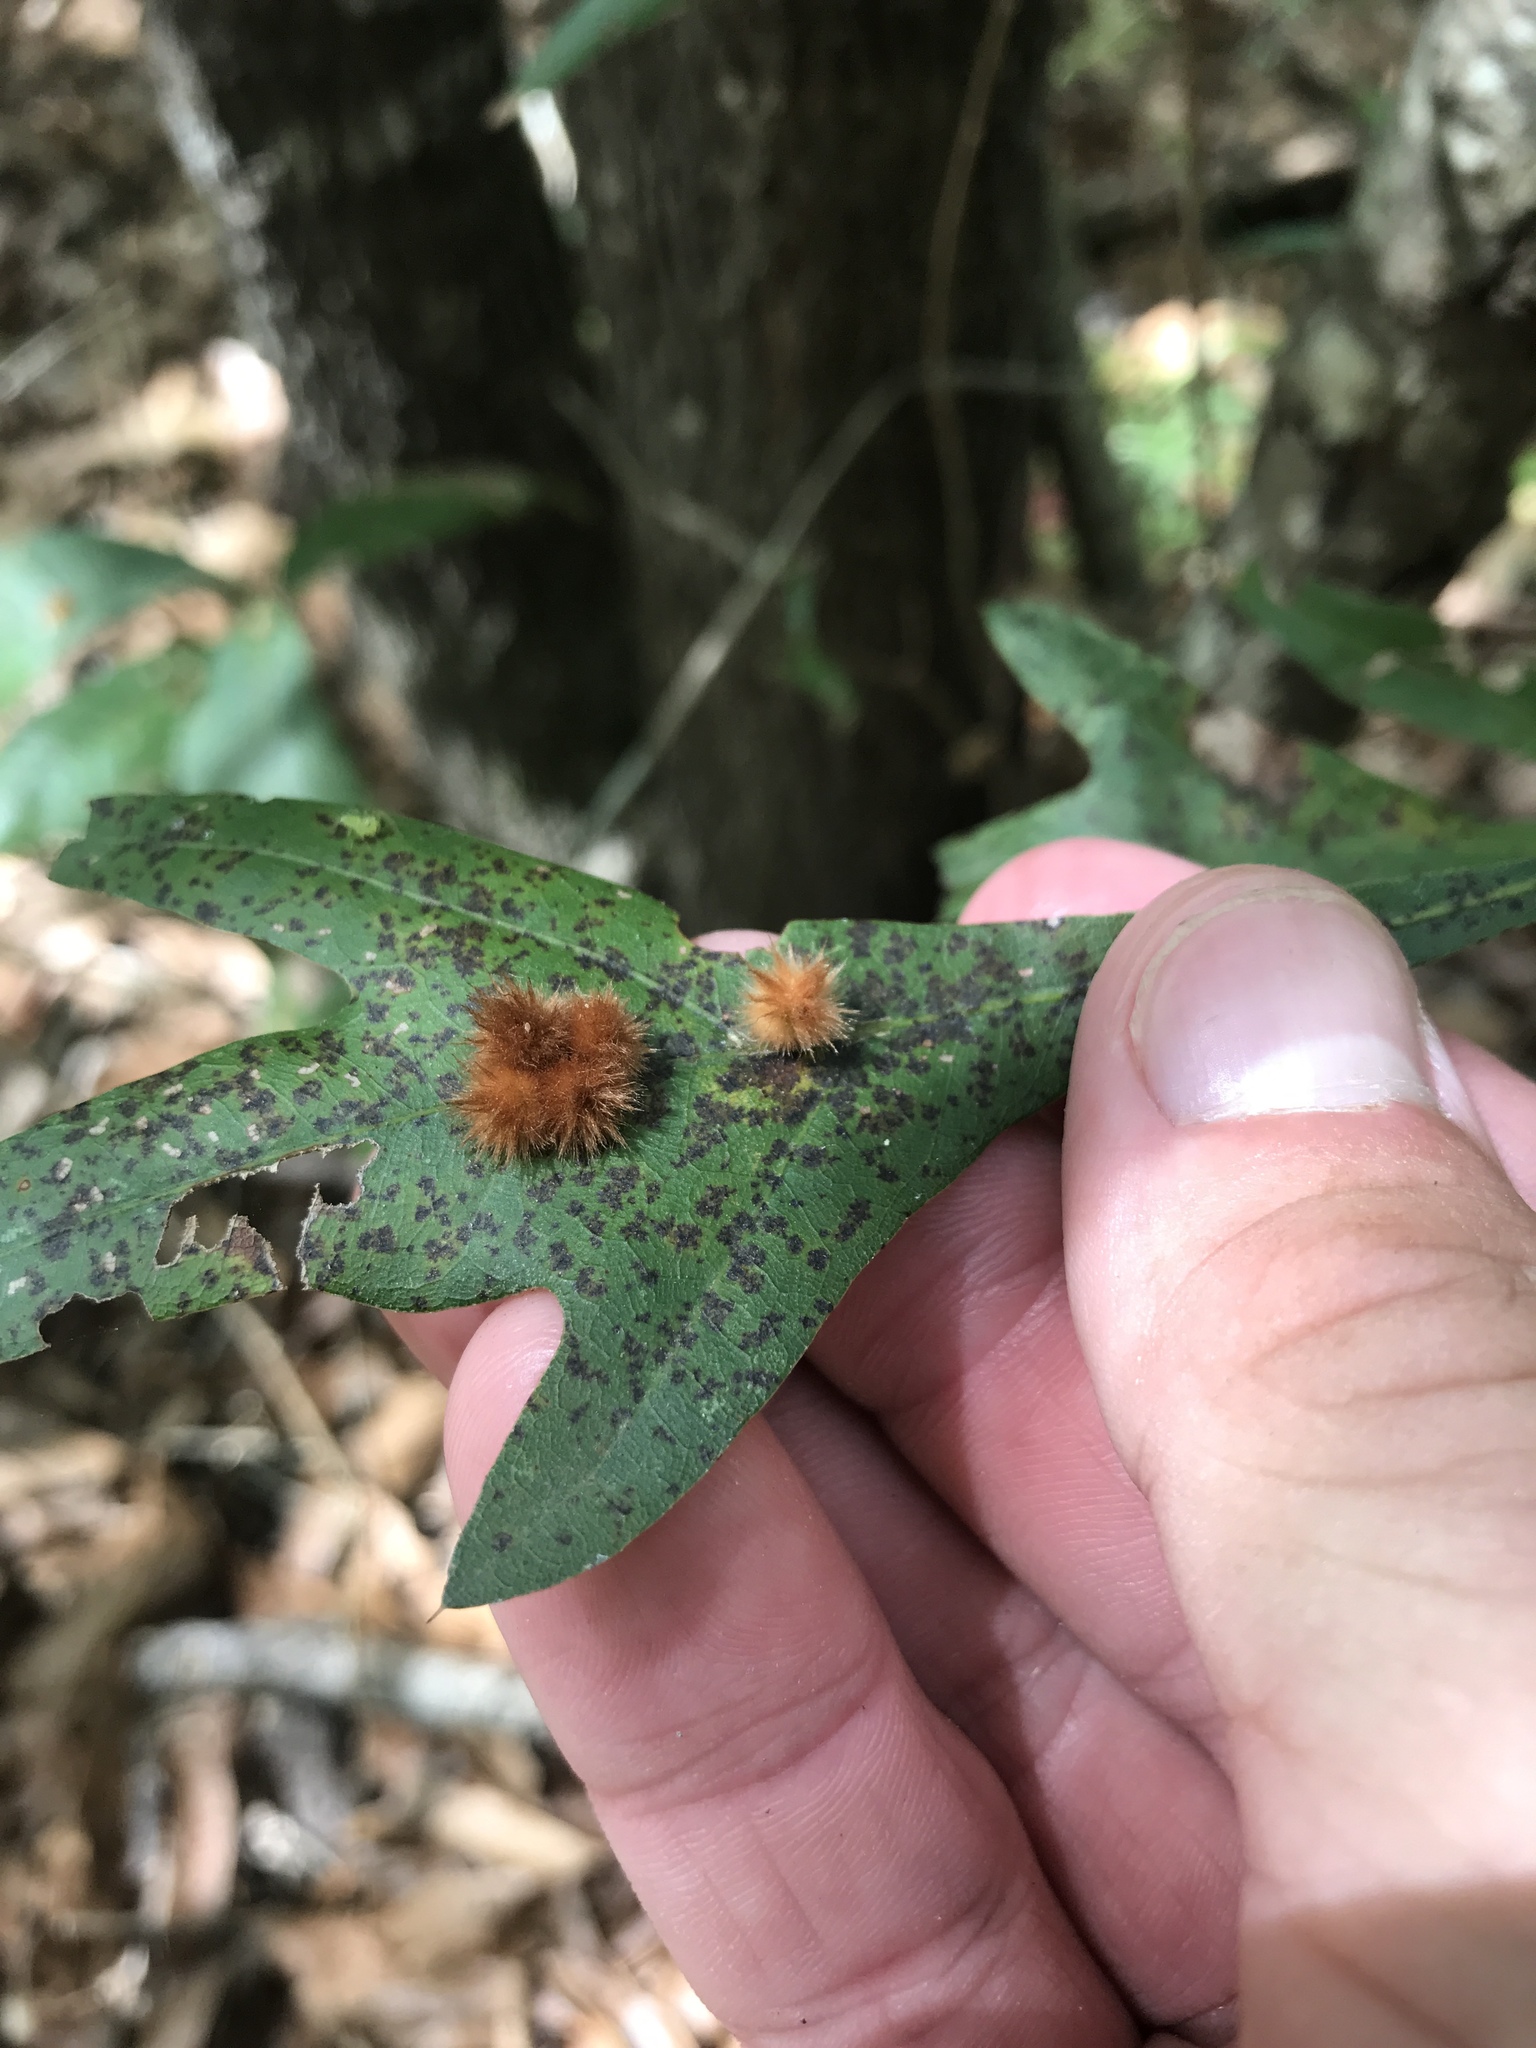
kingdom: Animalia
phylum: Arthropoda
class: Insecta
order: Hymenoptera
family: Cynipidae
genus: Callirhytis
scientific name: Callirhytis
